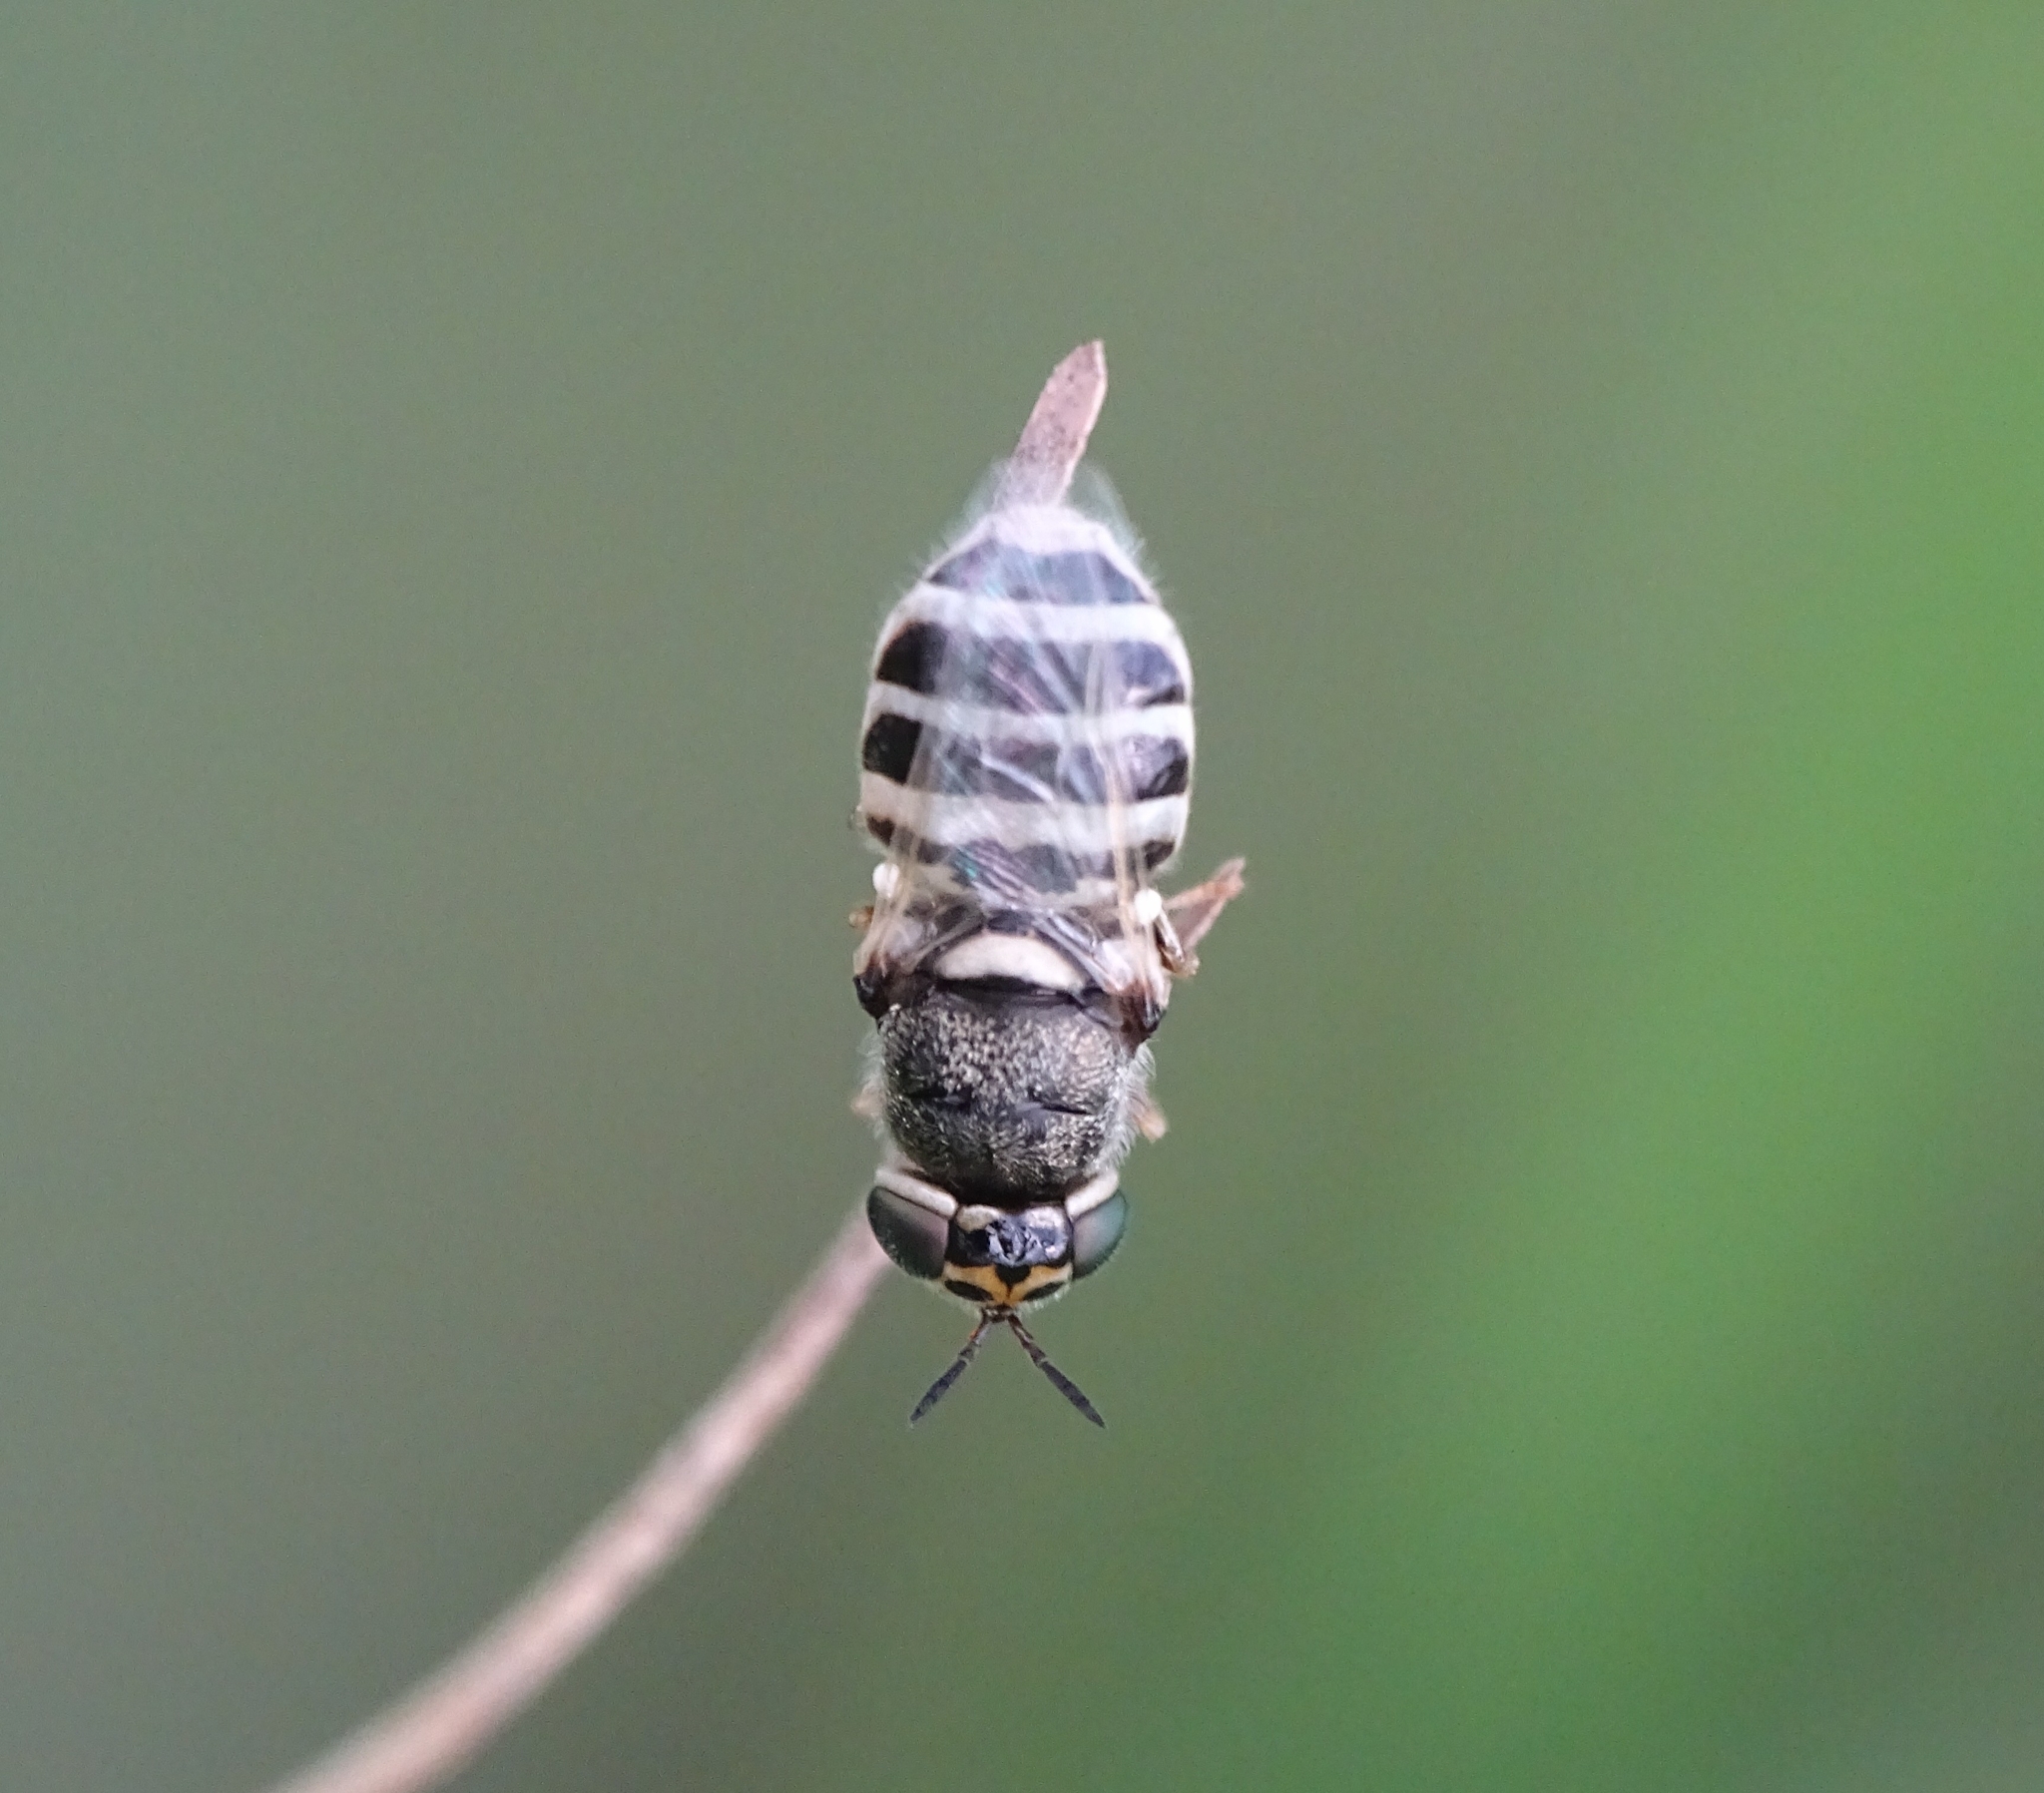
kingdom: Animalia
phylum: Arthropoda
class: Insecta
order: Diptera
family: Stratiomyidae
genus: Oplodontha
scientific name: Oplodontha minuta
